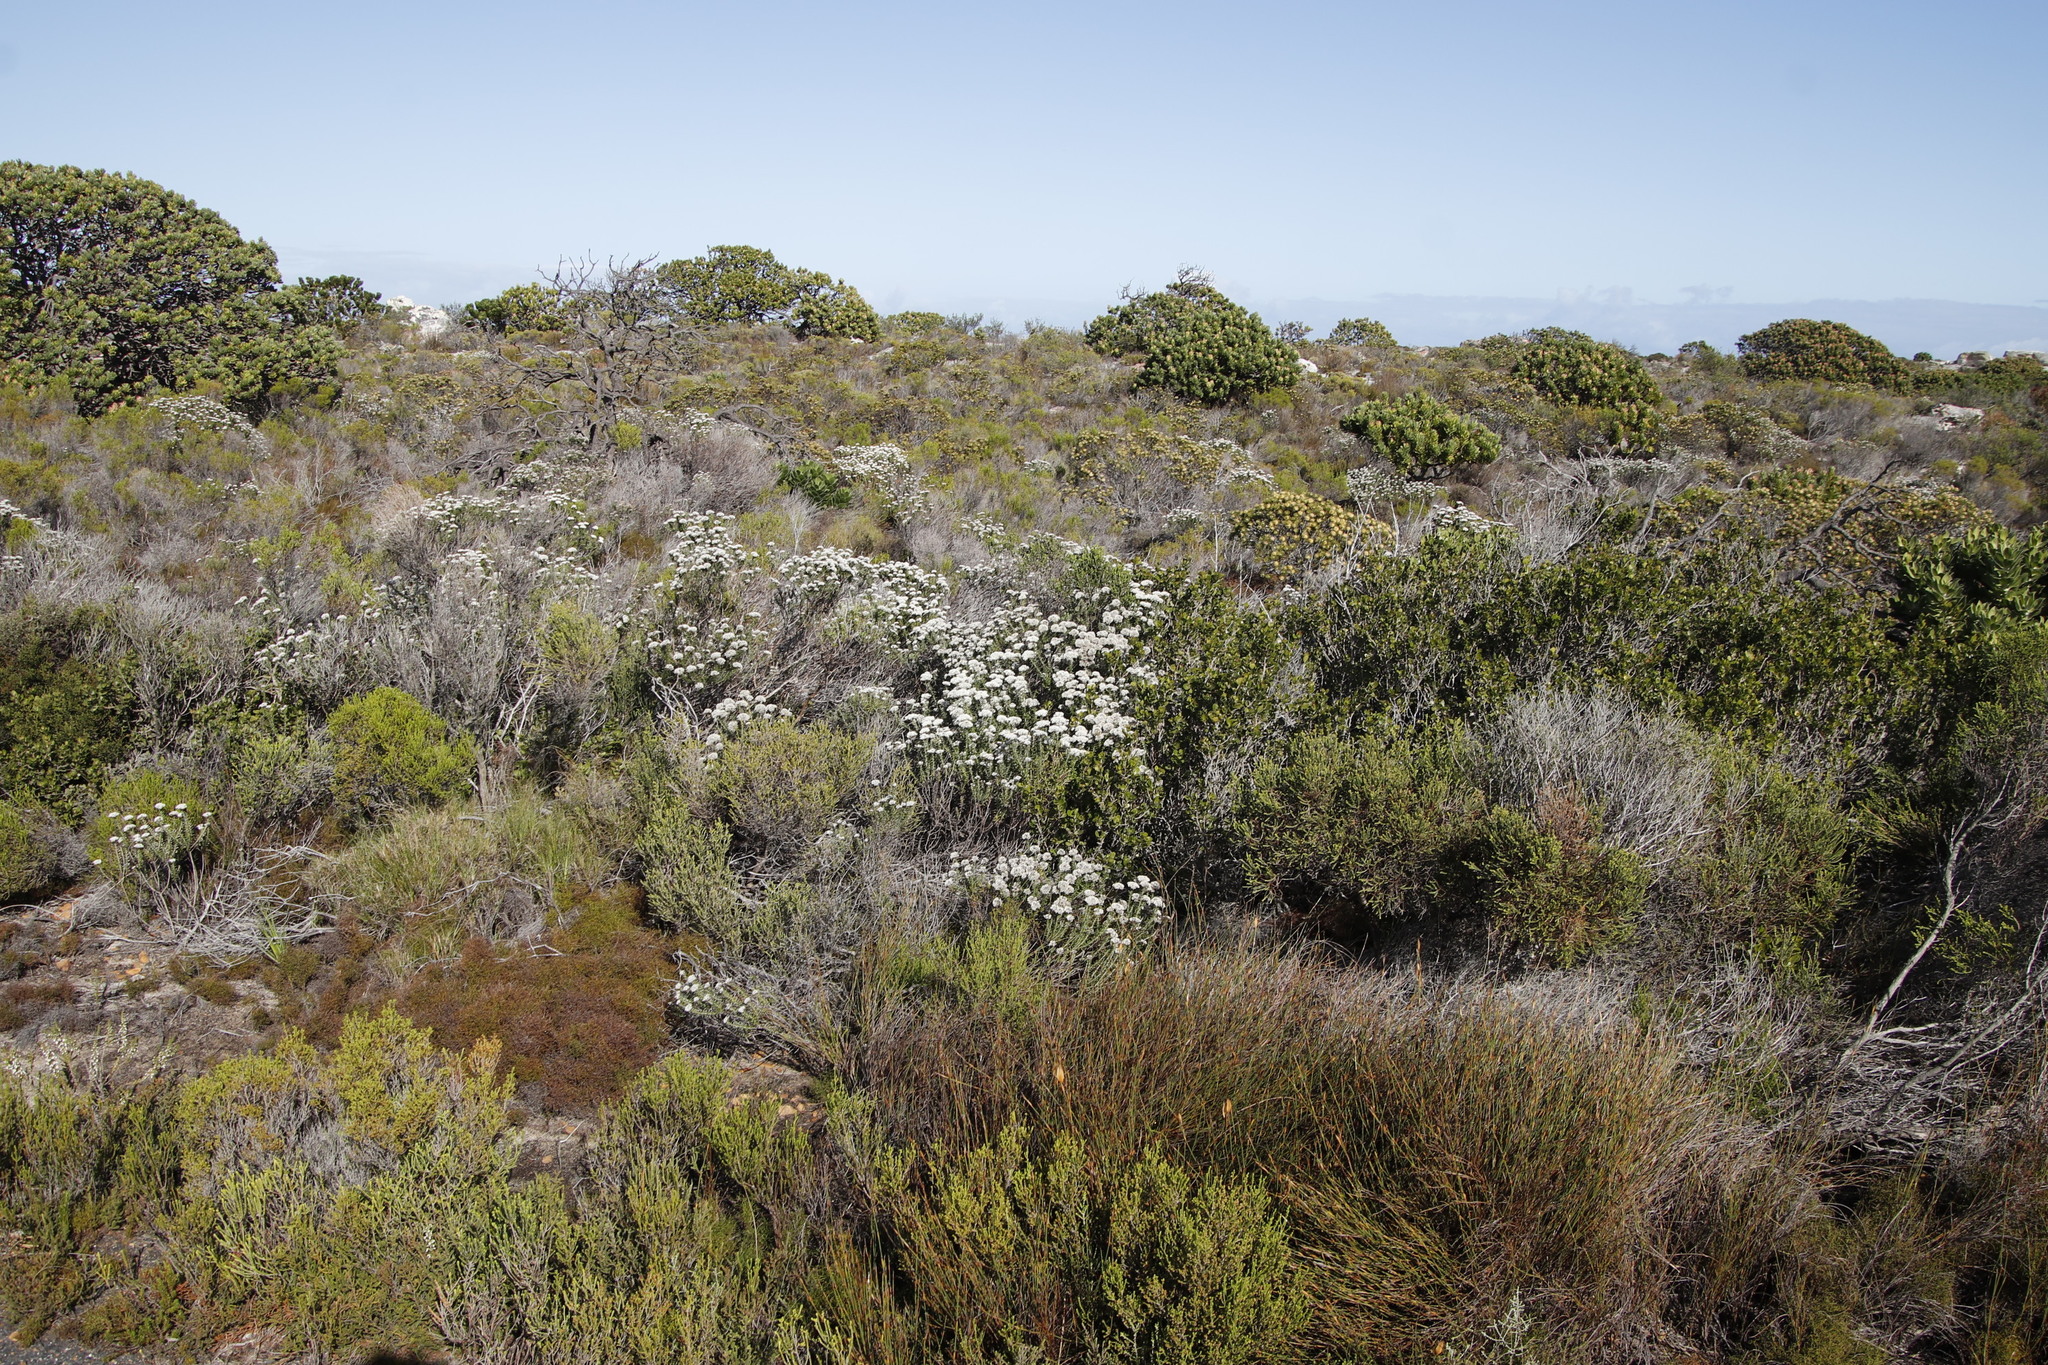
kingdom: Plantae
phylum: Tracheophyta
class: Magnoliopsida
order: Asterales
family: Asteraceae
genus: Metalasia
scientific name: Metalasia densa
